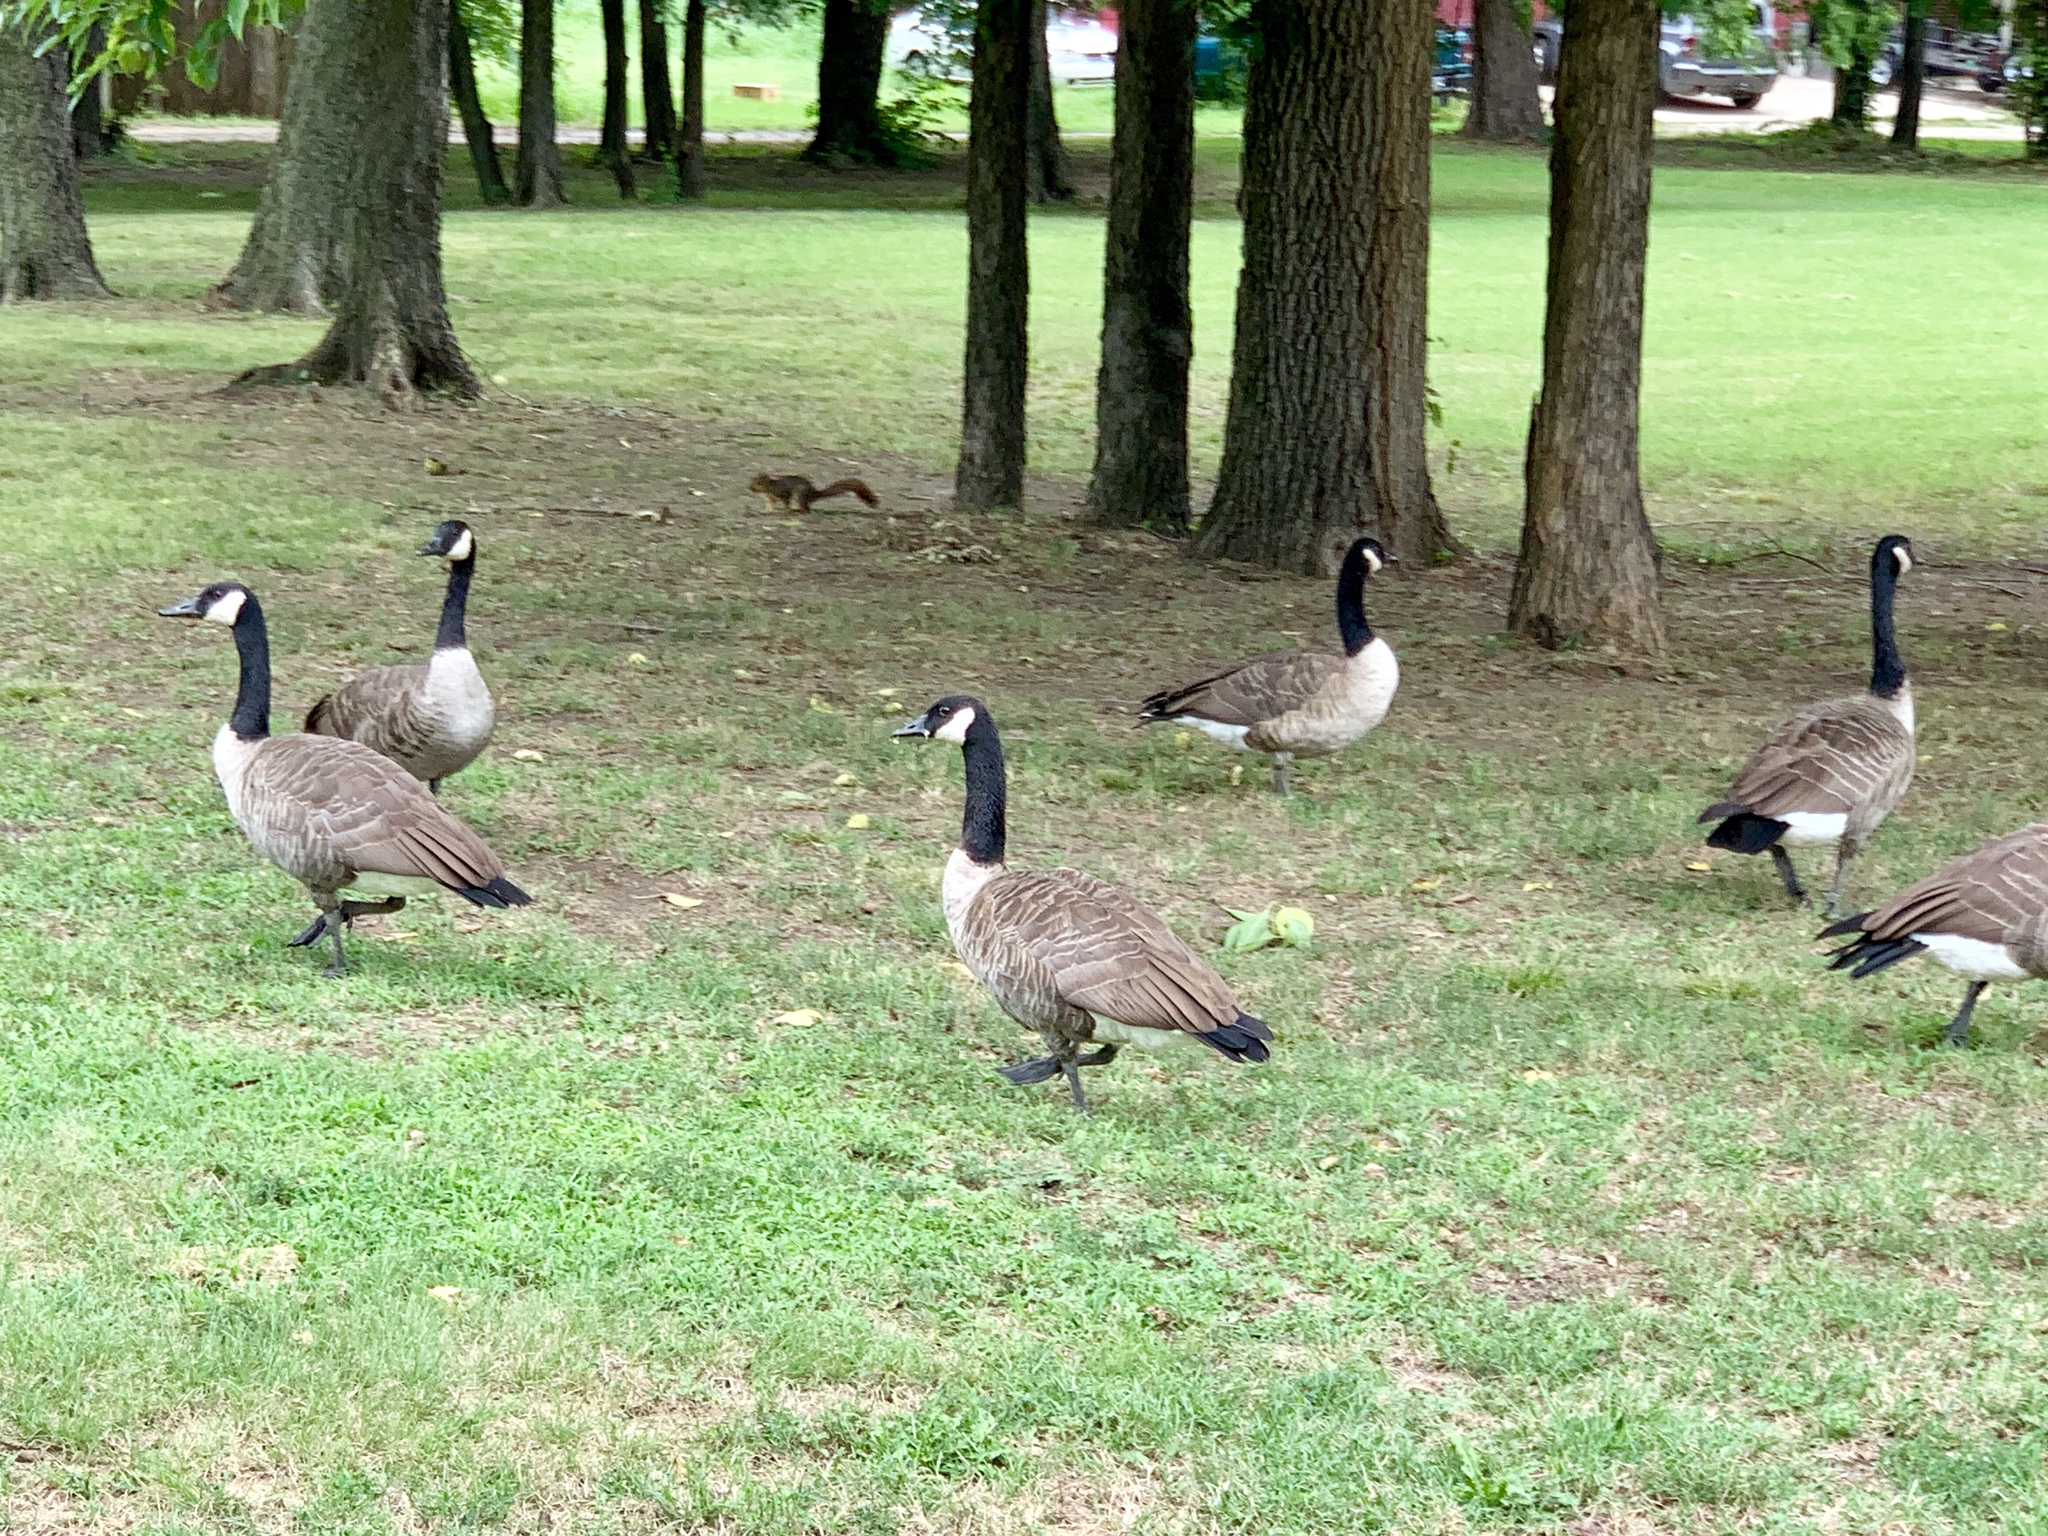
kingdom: Animalia
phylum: Chordata
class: Aves
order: Anseriformes
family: Anatidae
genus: Branta
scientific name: Branta canadensis
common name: Canada goose
